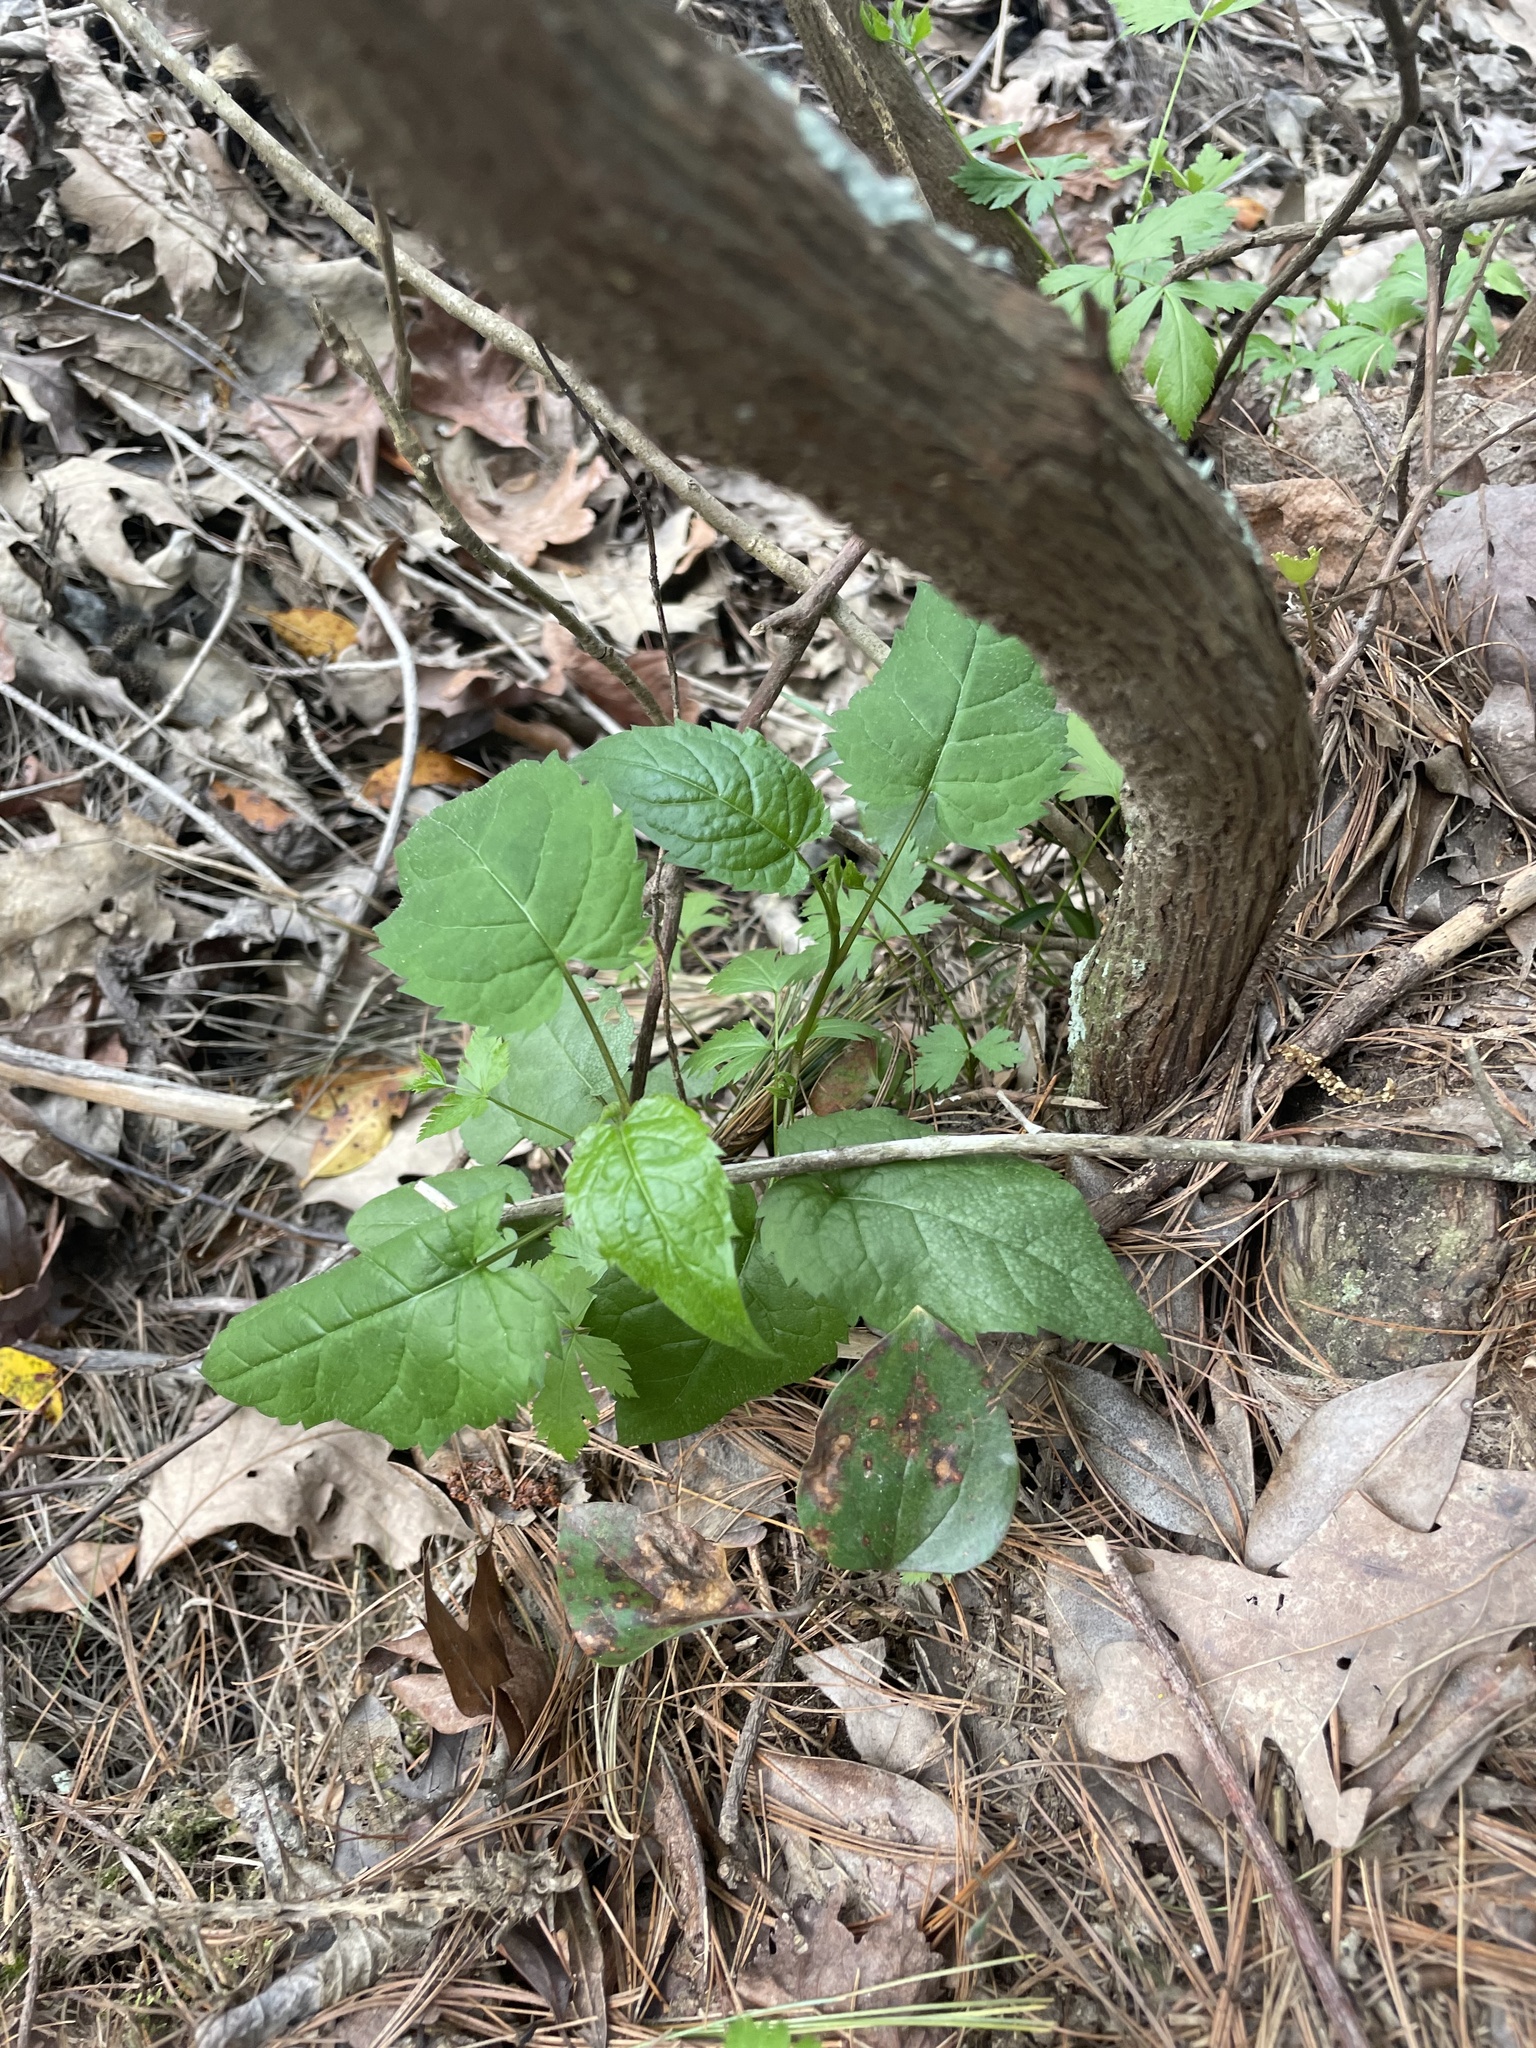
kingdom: Plantae
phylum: Tracheophyta
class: Magnoliopsida
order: Asterales
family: Asteraceae
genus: Eurybia
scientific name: Eurybia divaricata
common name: White wood aster
